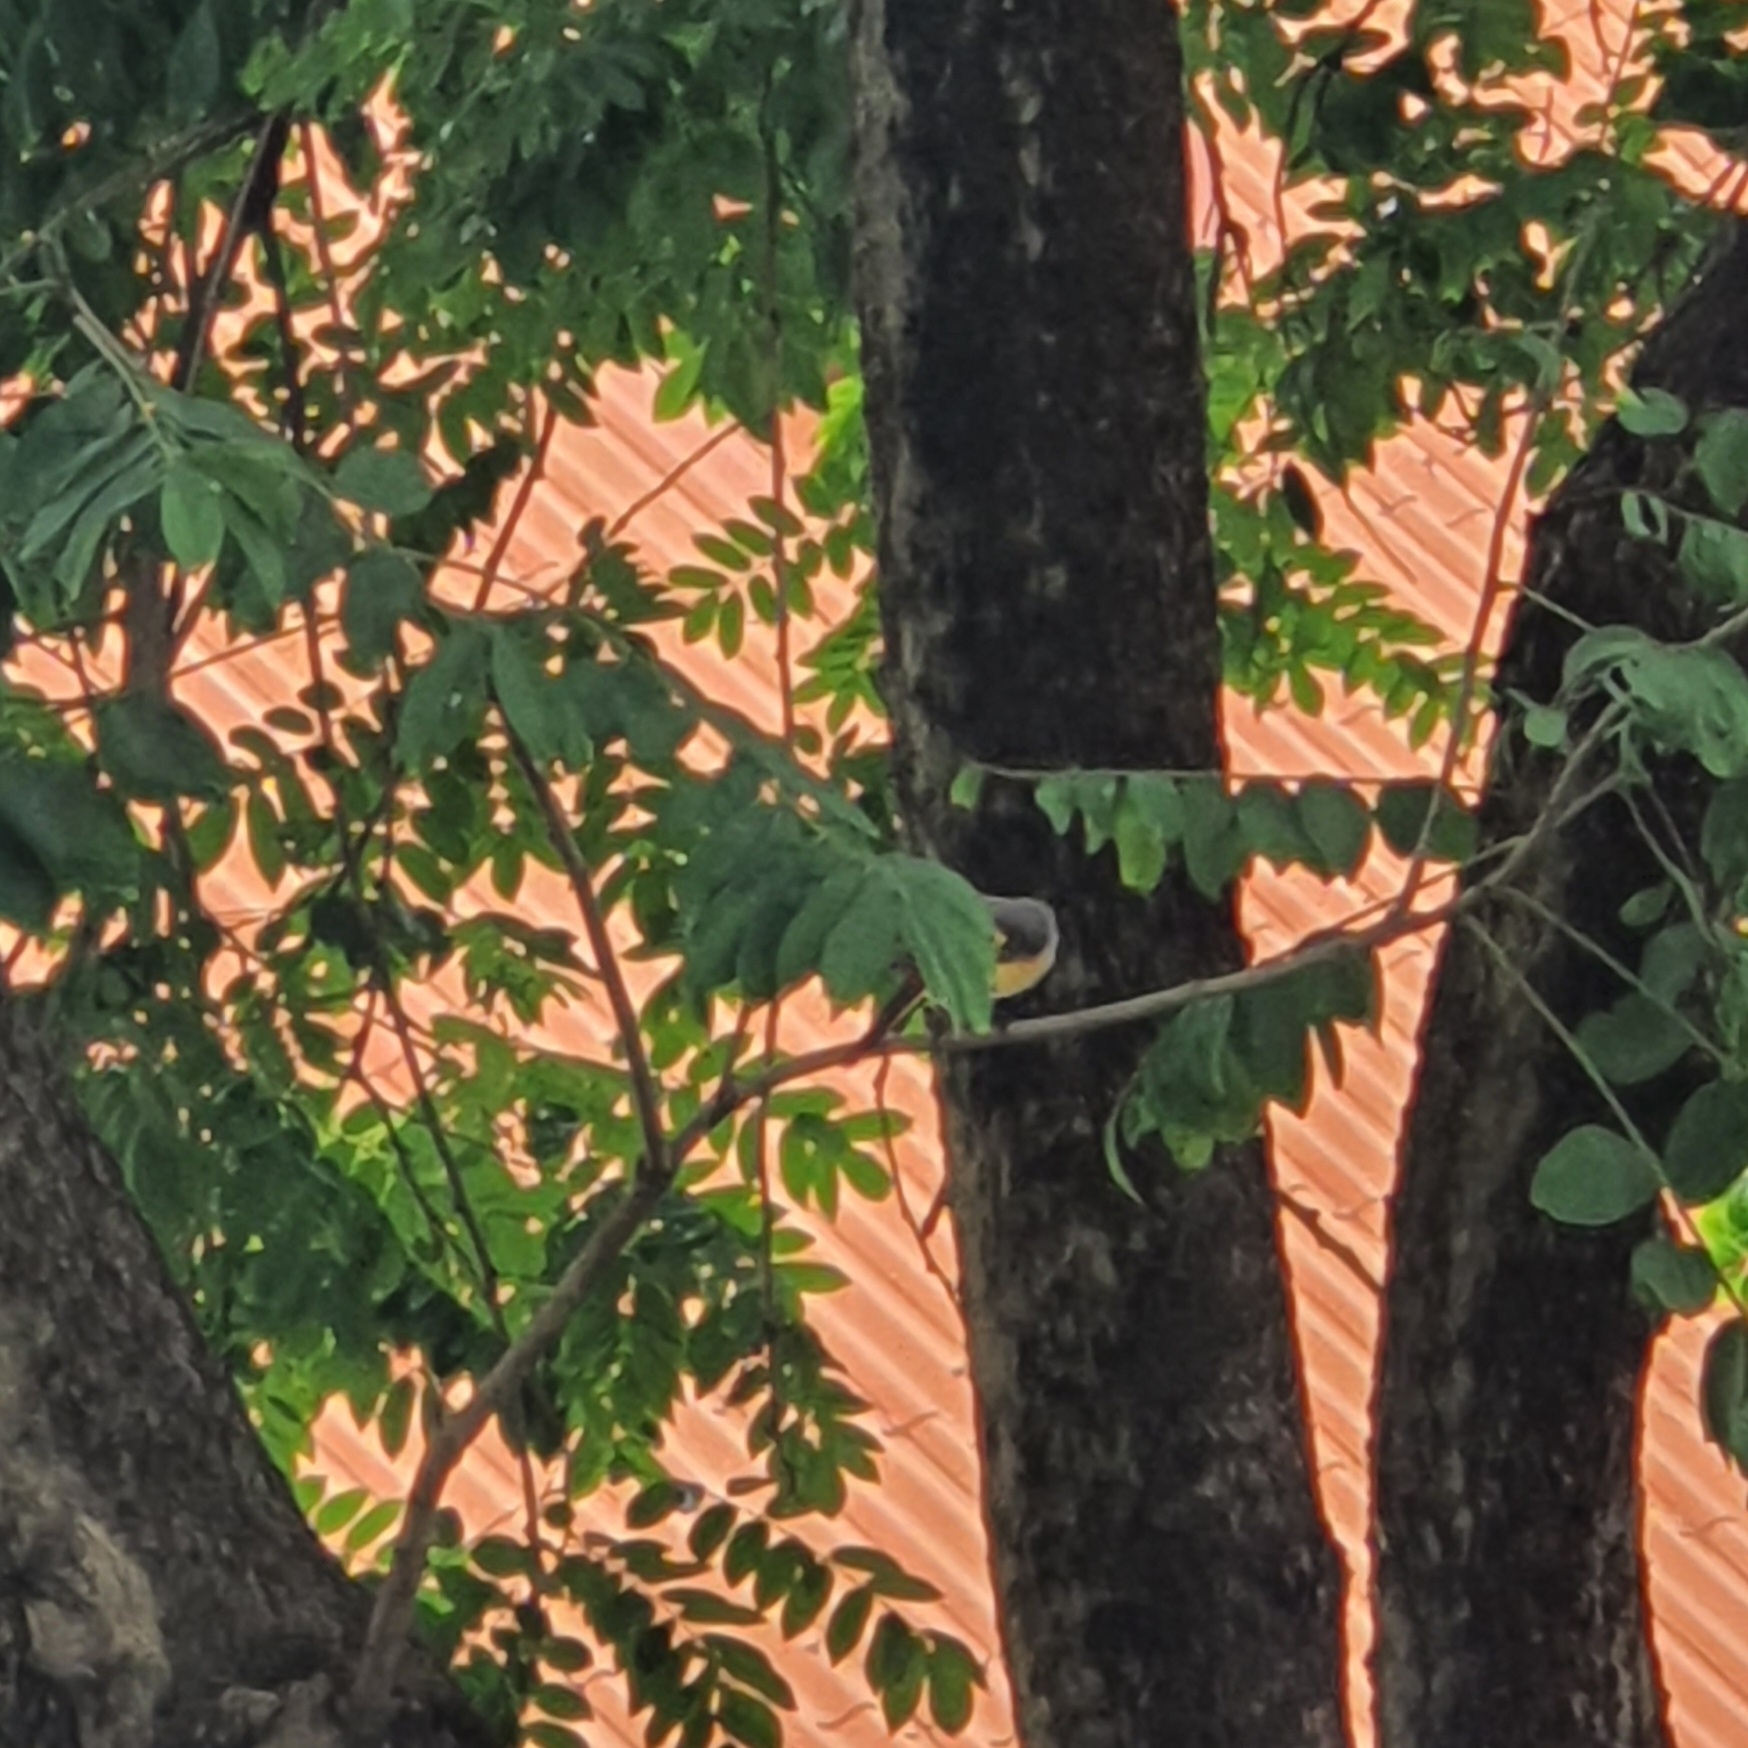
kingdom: Animalia
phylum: Chordata
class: Aves
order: Passeriformes
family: Campephagidae
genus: Pericrocotus
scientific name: Pericrocotus cinnamomeus
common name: Small minivet
